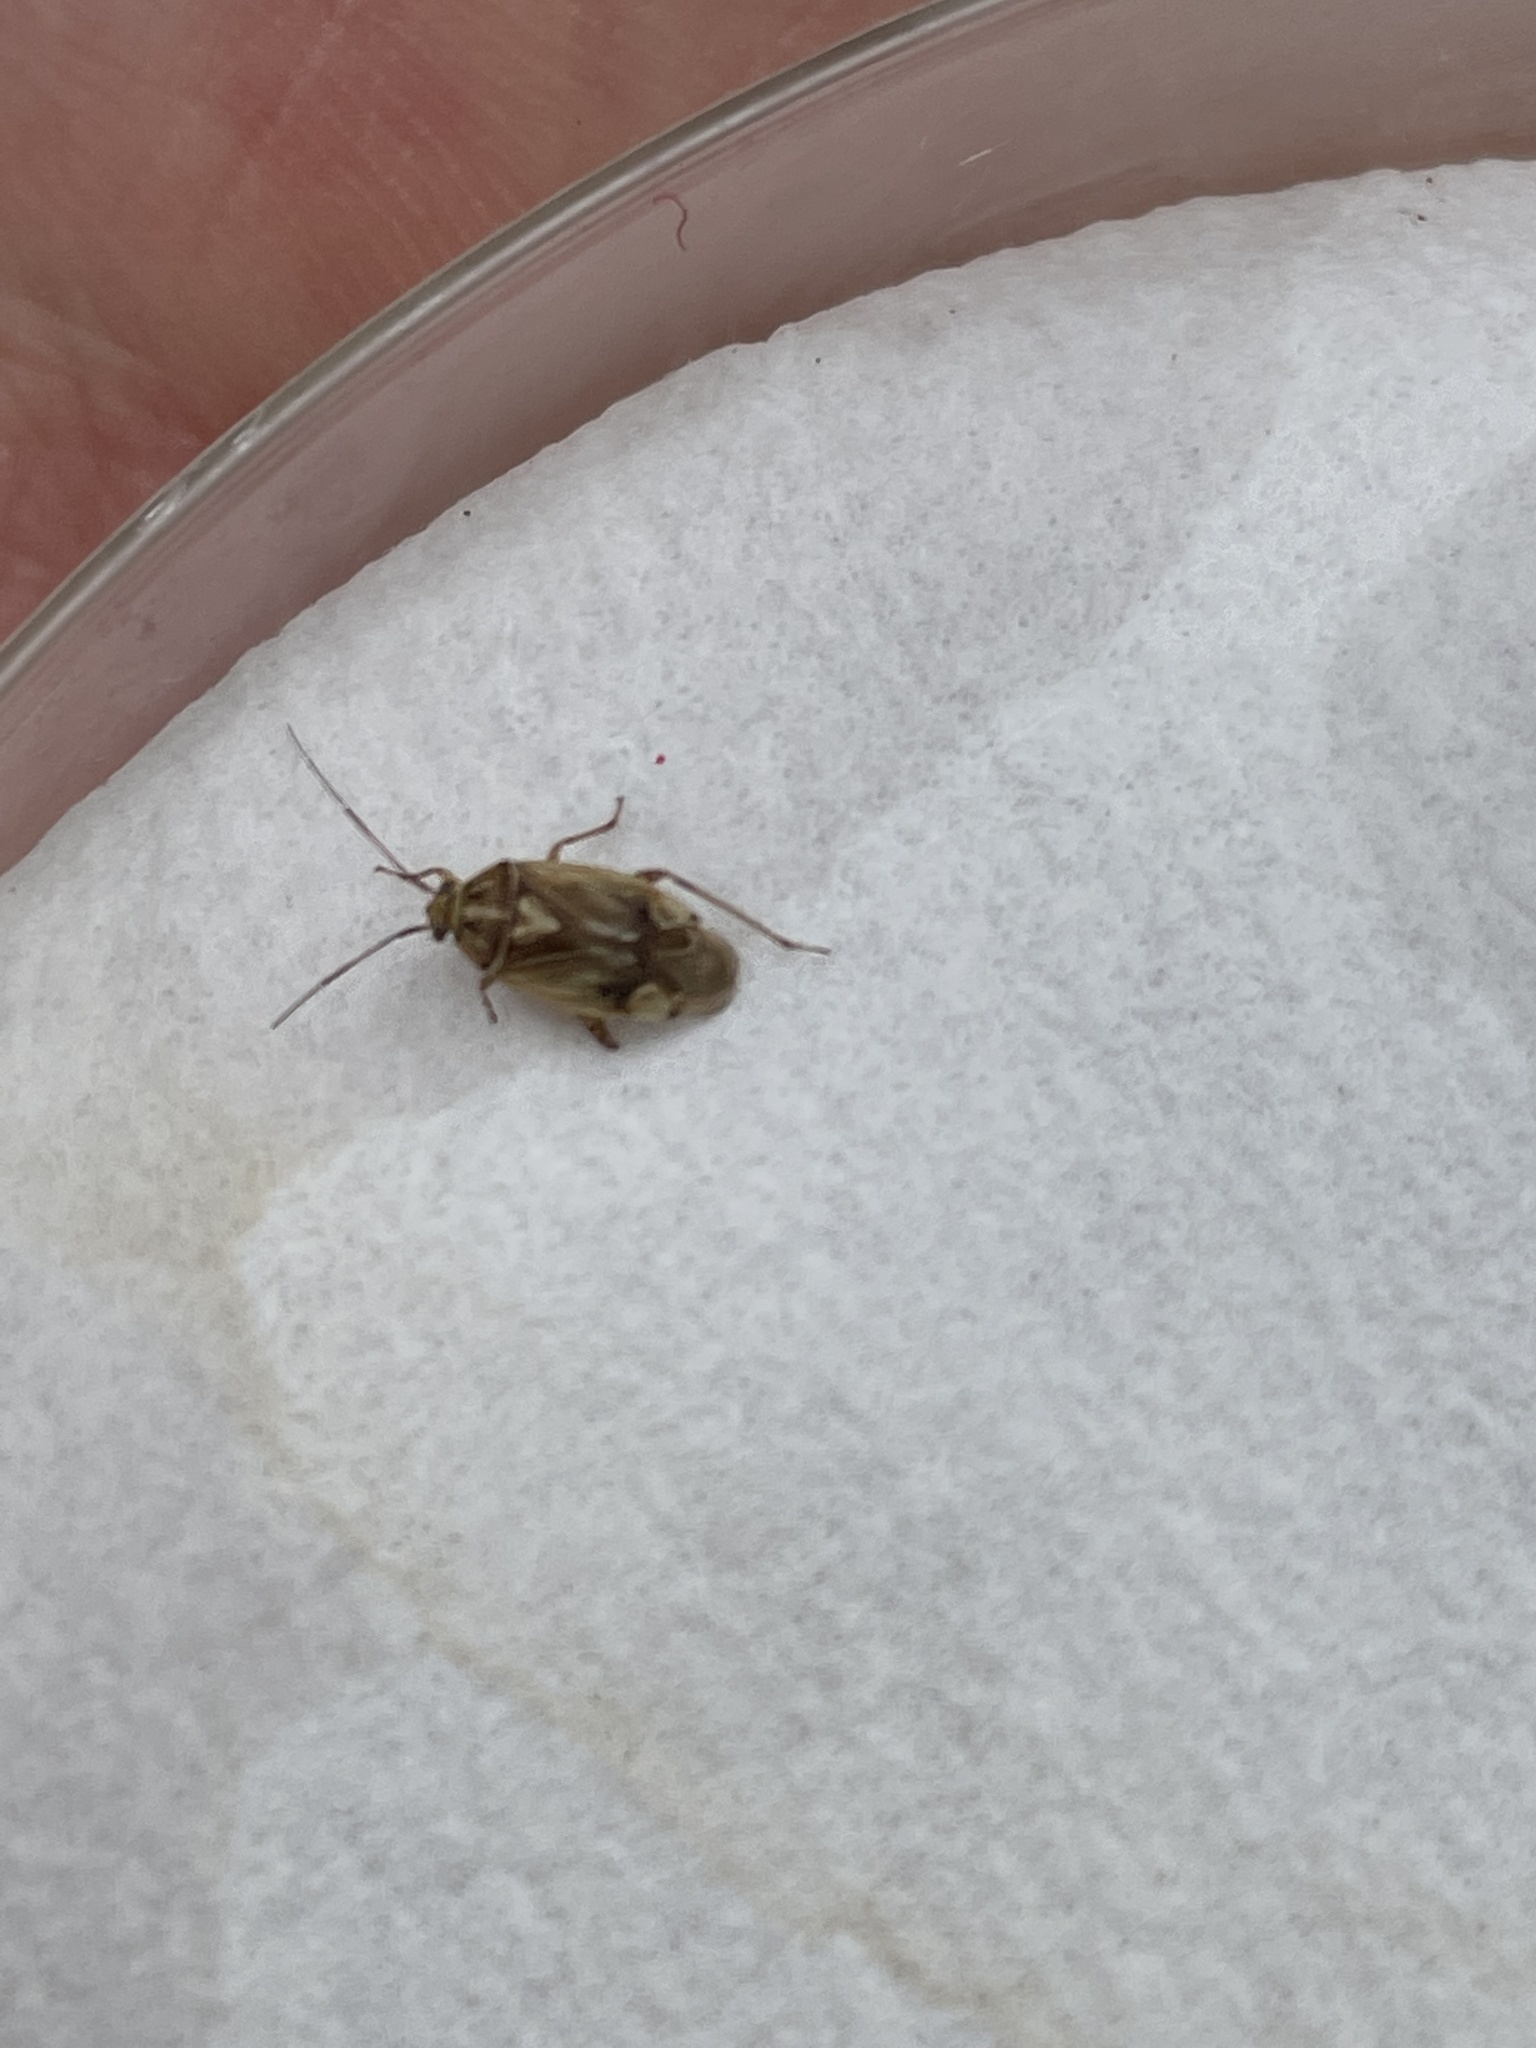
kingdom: Animalia
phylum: Arthropoda
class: Insecta
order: Hemiptera
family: Miridae
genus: Lygus
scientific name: Lygus lineolaris
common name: North american tarnished plant bug
